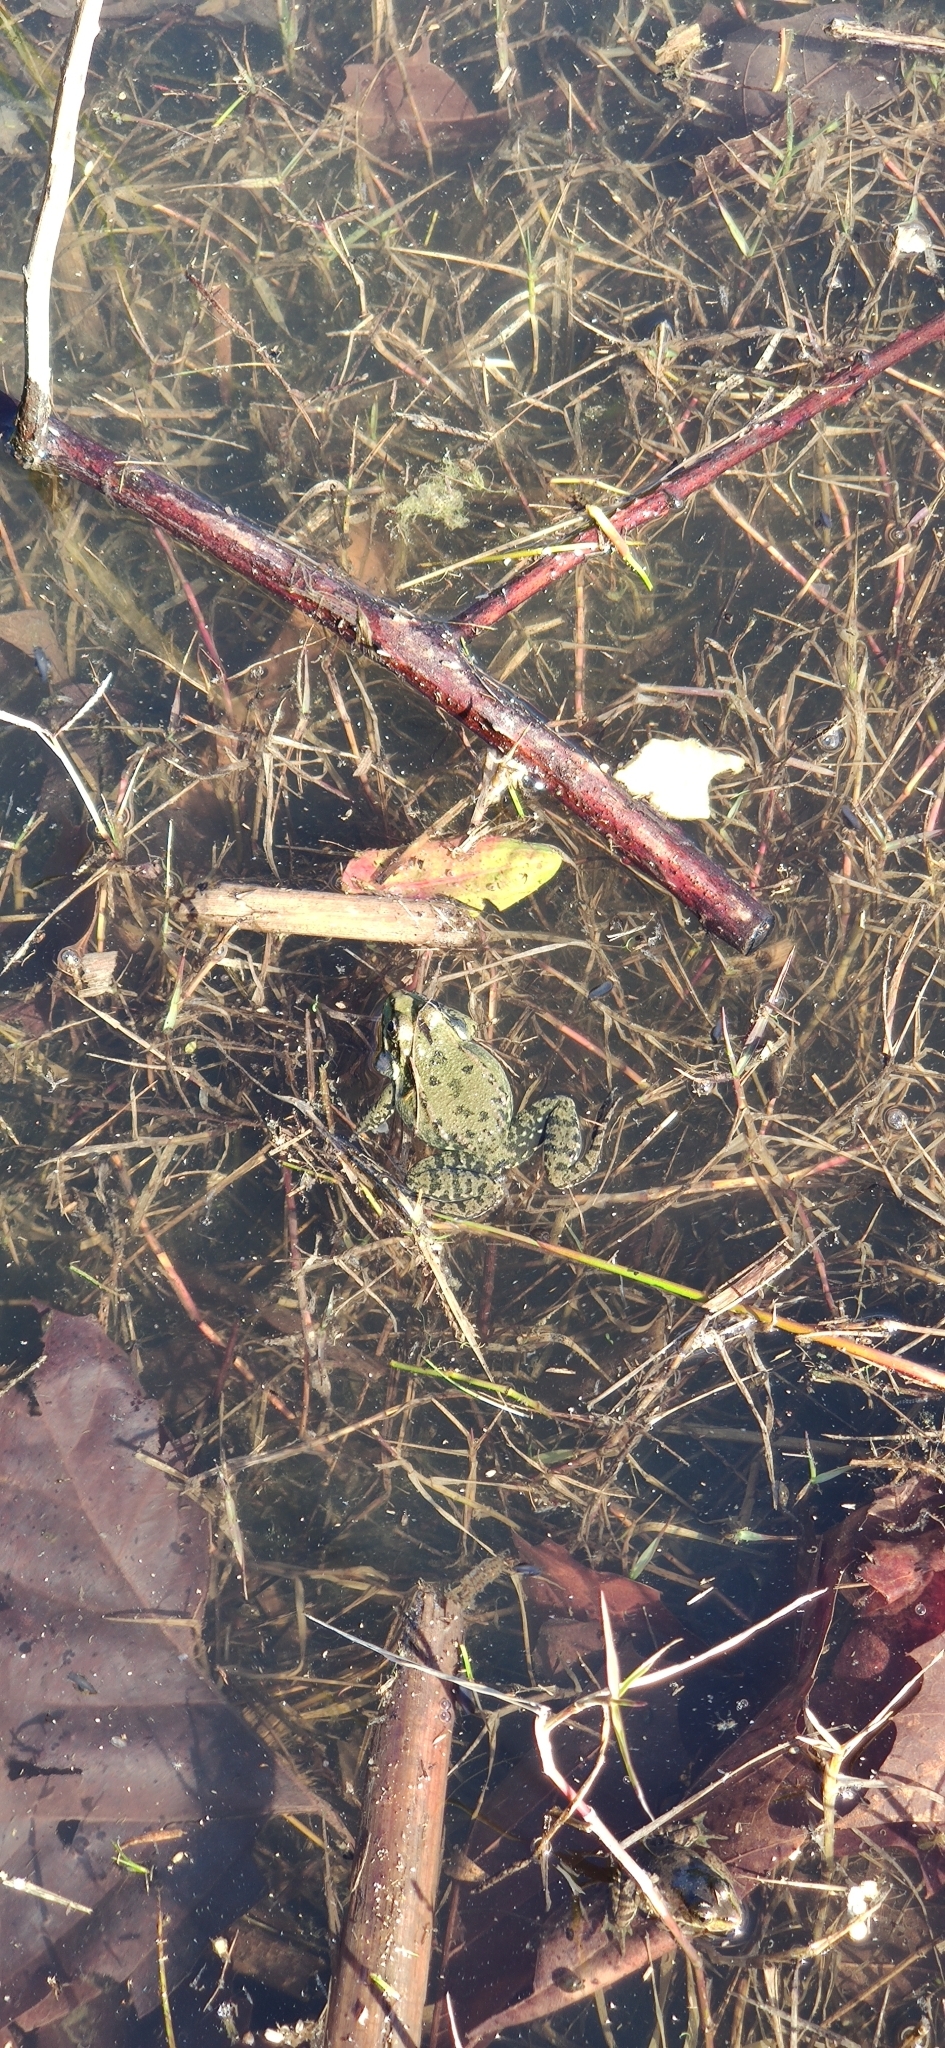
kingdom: Animalia
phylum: Chordata
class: Amphibia
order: Anura
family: Ranidae
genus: Pelophylax
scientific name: Pelophylax ridibundus
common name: Marsh frog
